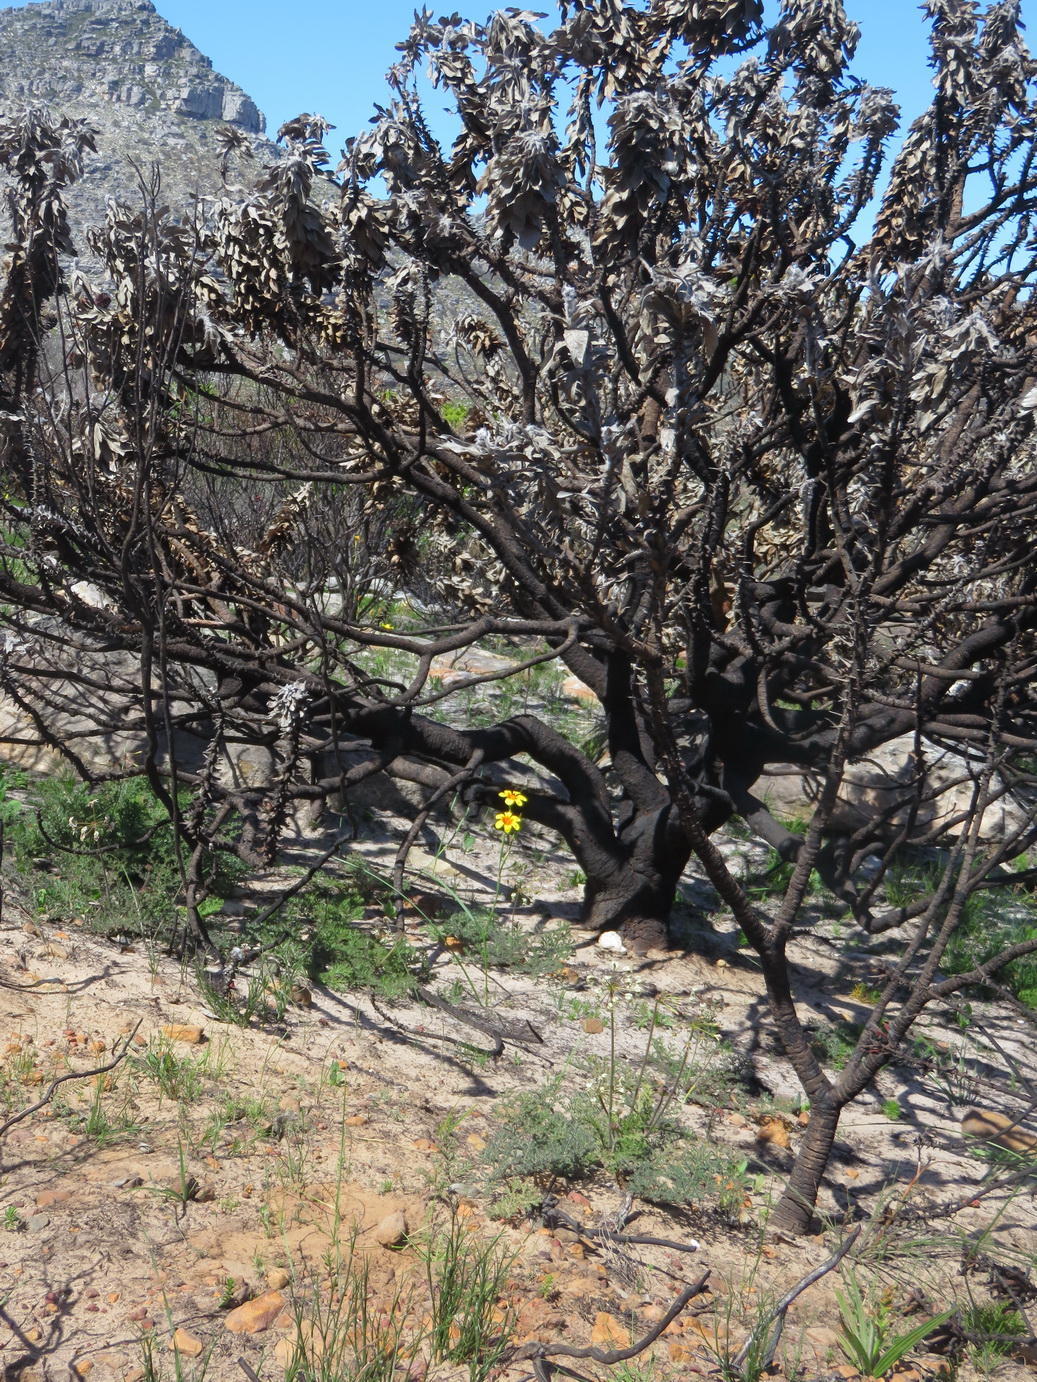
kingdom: Plantae
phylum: Tracheophyta
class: Liliopsida
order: Asparagales
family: Iridaceae
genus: Moraea
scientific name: Moraea ochroleuca
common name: Red tulp
